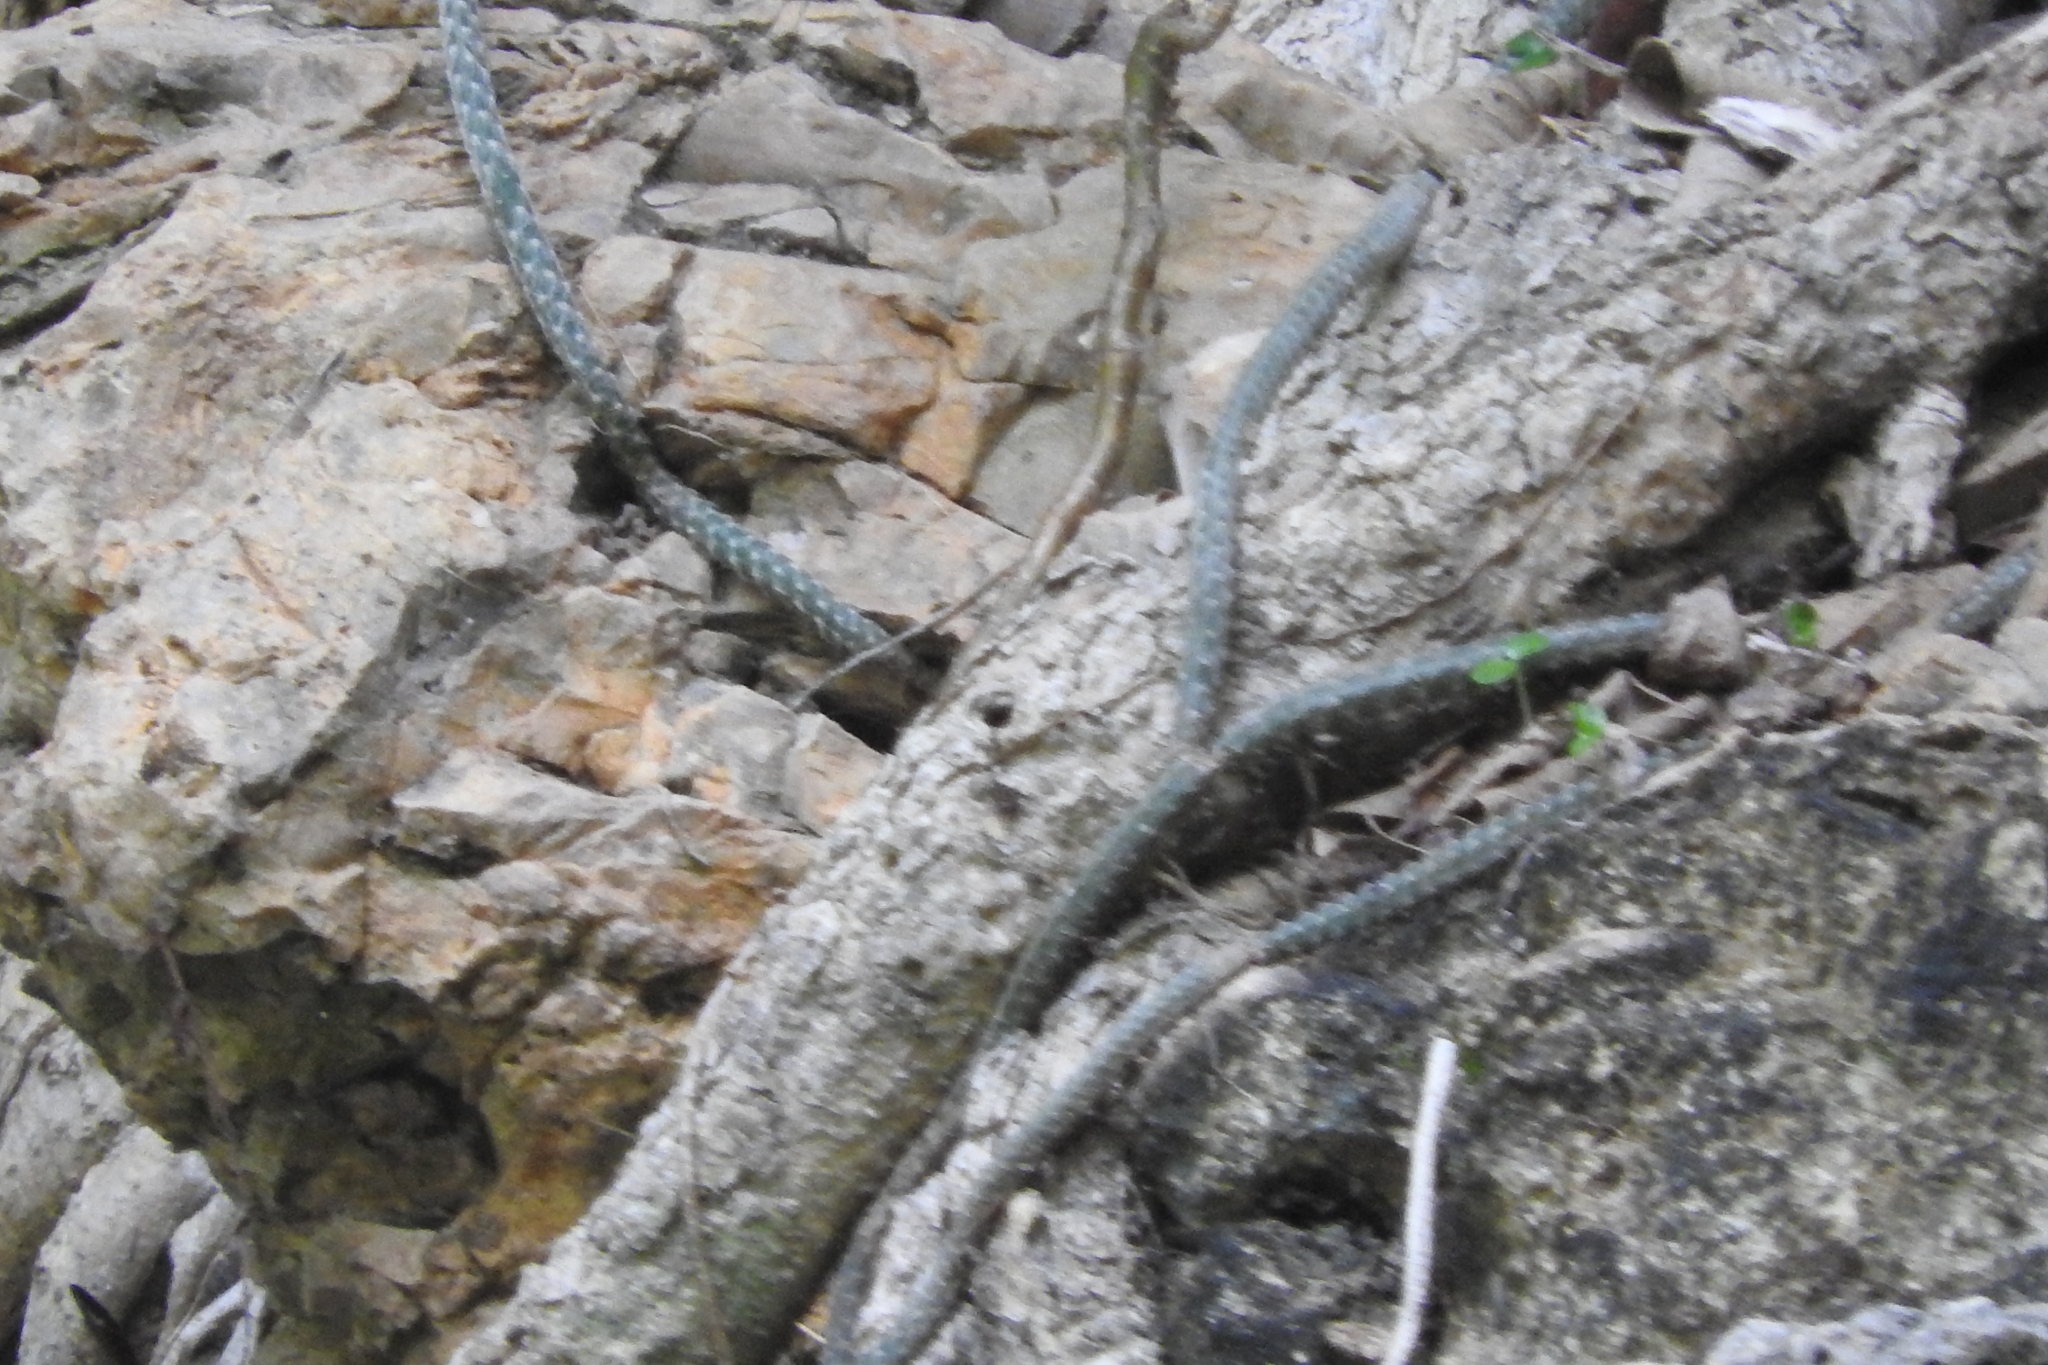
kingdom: Plantae
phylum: Tracheophyta
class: Magnoliopsida
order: Caryophyllales
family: Cactaceae
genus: Selenicereus
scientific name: Selenicereus grandiflorus
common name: Queen of the night
